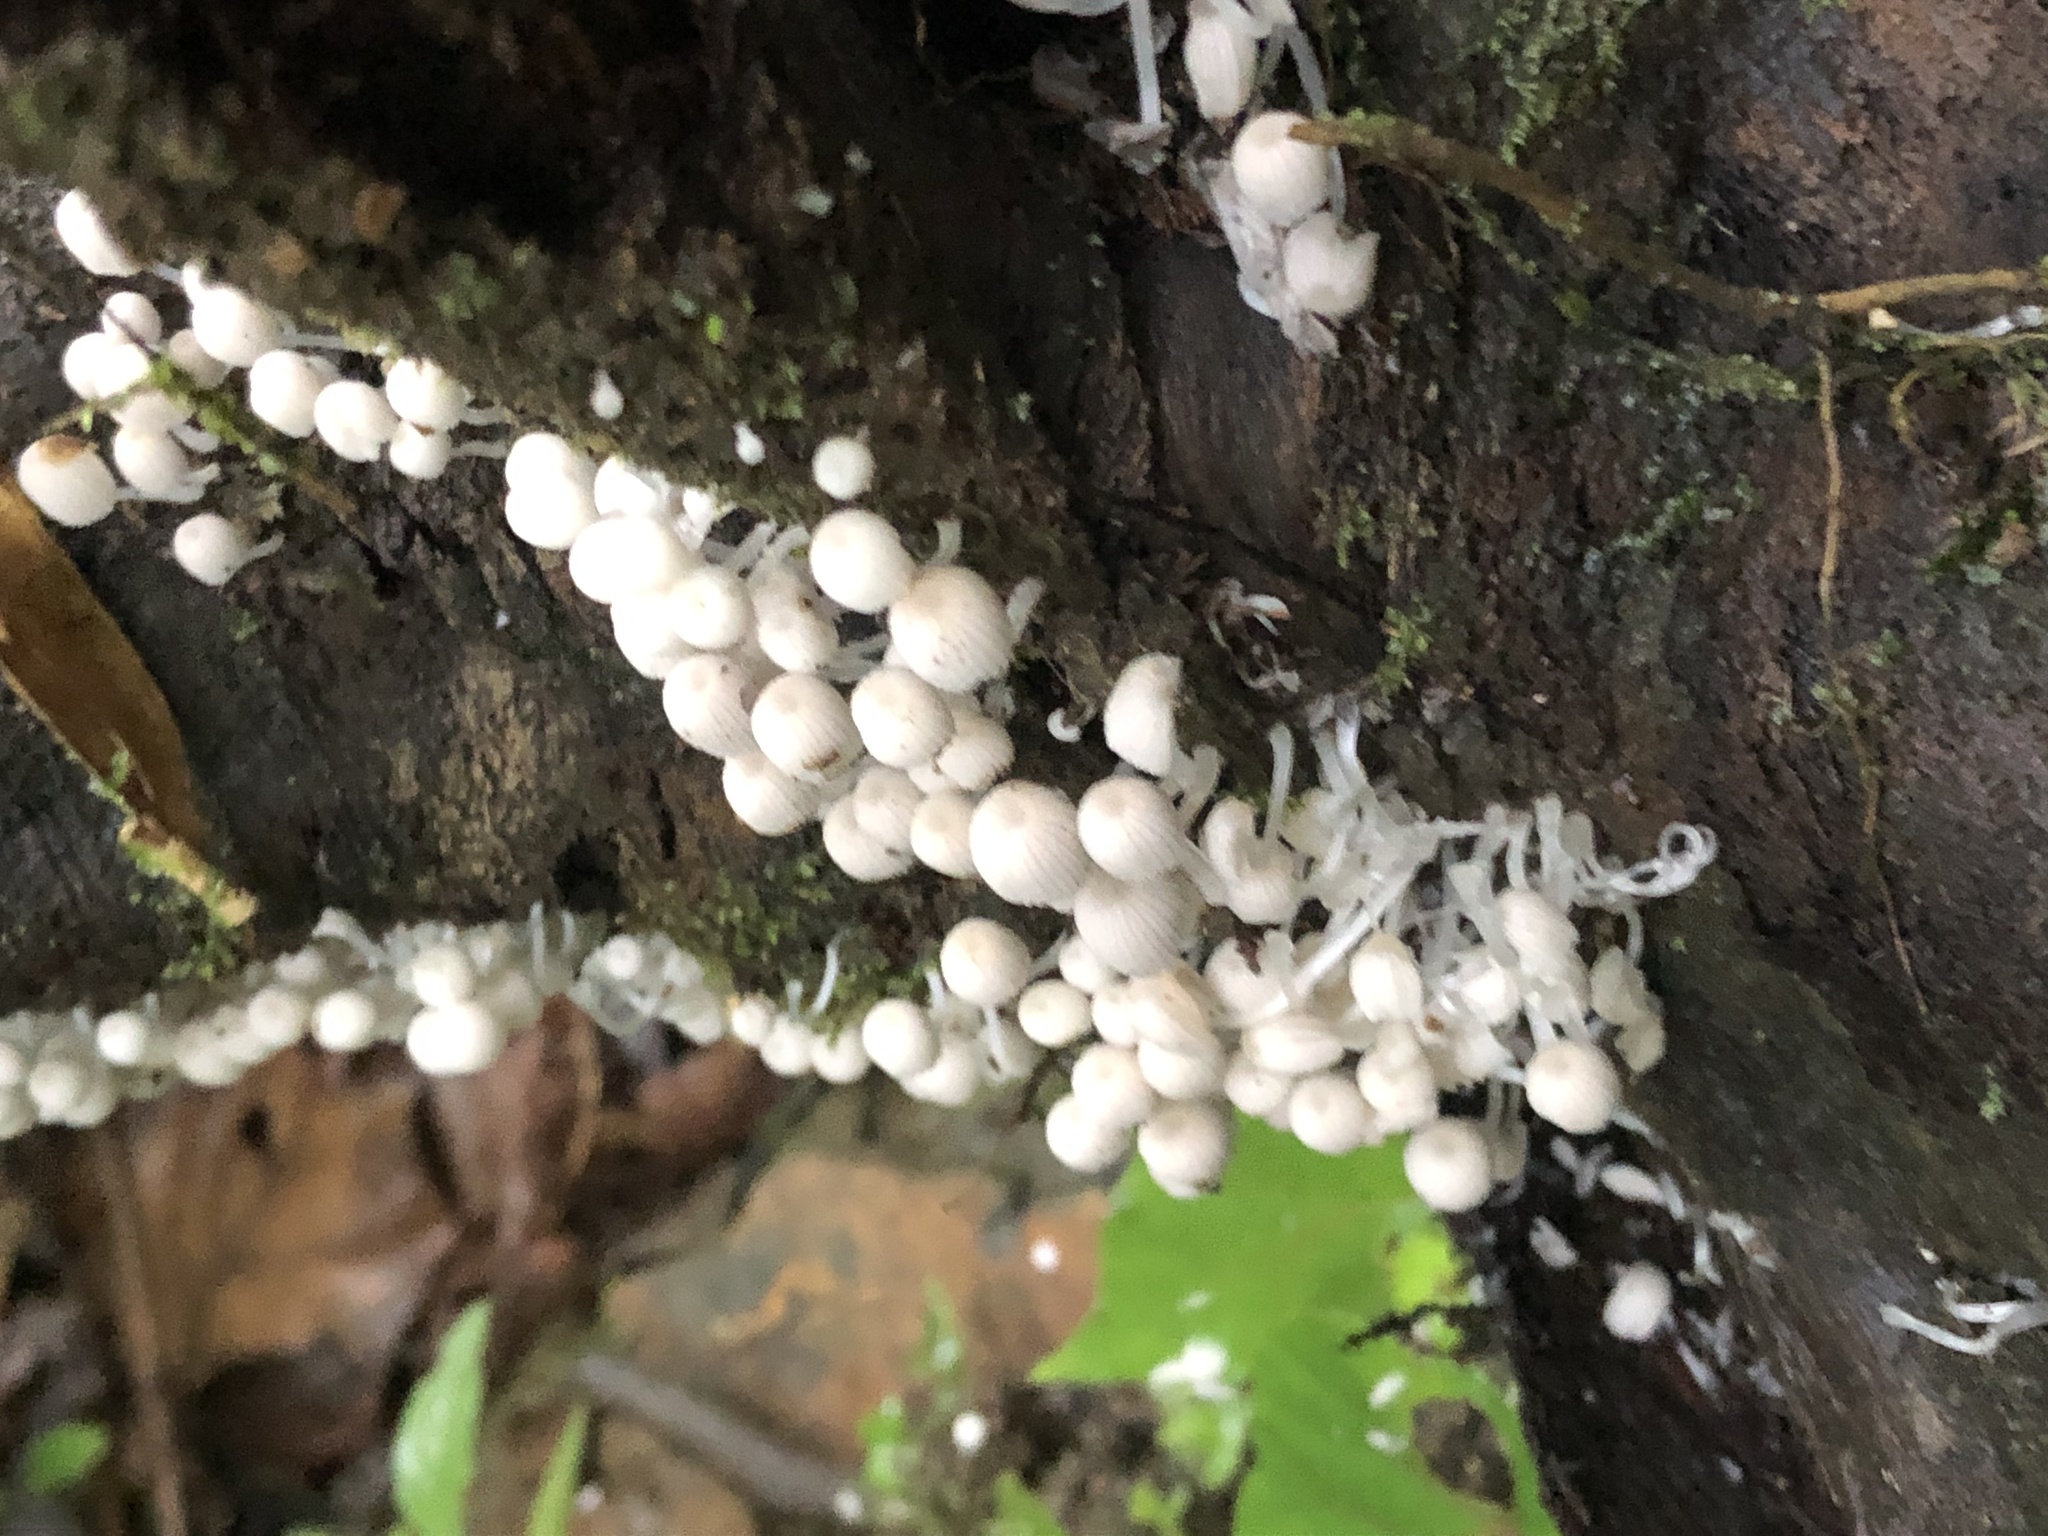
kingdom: Fungi
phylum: Basidiomycota
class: Agaricomycetes
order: Agaricales
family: Psathyrellaceae
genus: Coprinellus
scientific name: Coprinellus disseminatus
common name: Fairies' bonnets
